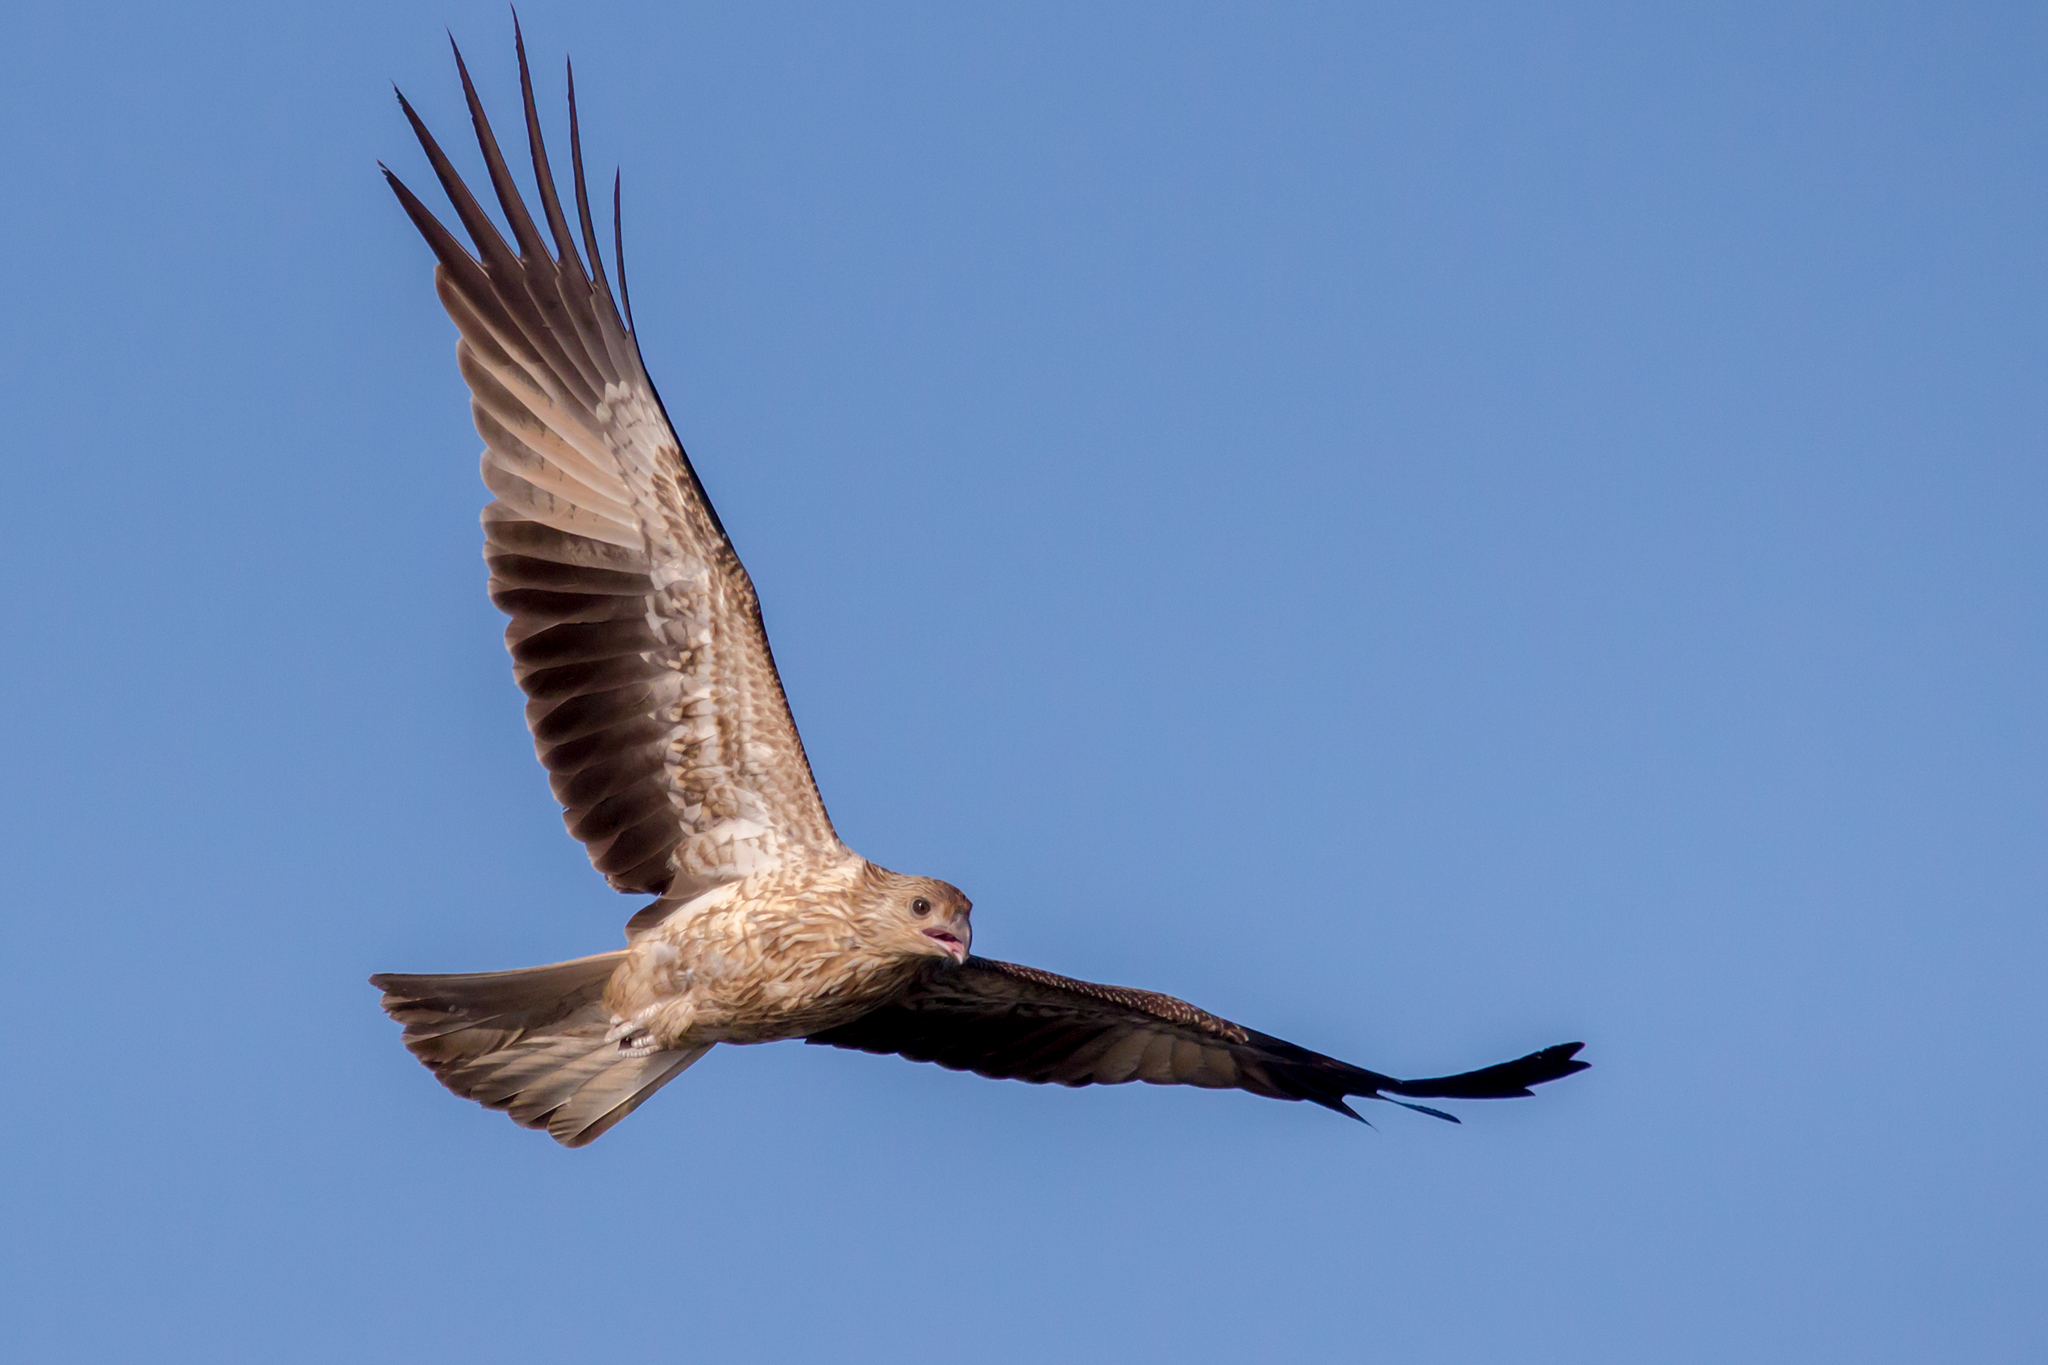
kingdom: Animalia
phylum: Chordata
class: Aves
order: Accipitriformes
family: Accipitridae
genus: Haliastur
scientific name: Haliastur sphenurus
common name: Whistling kite
